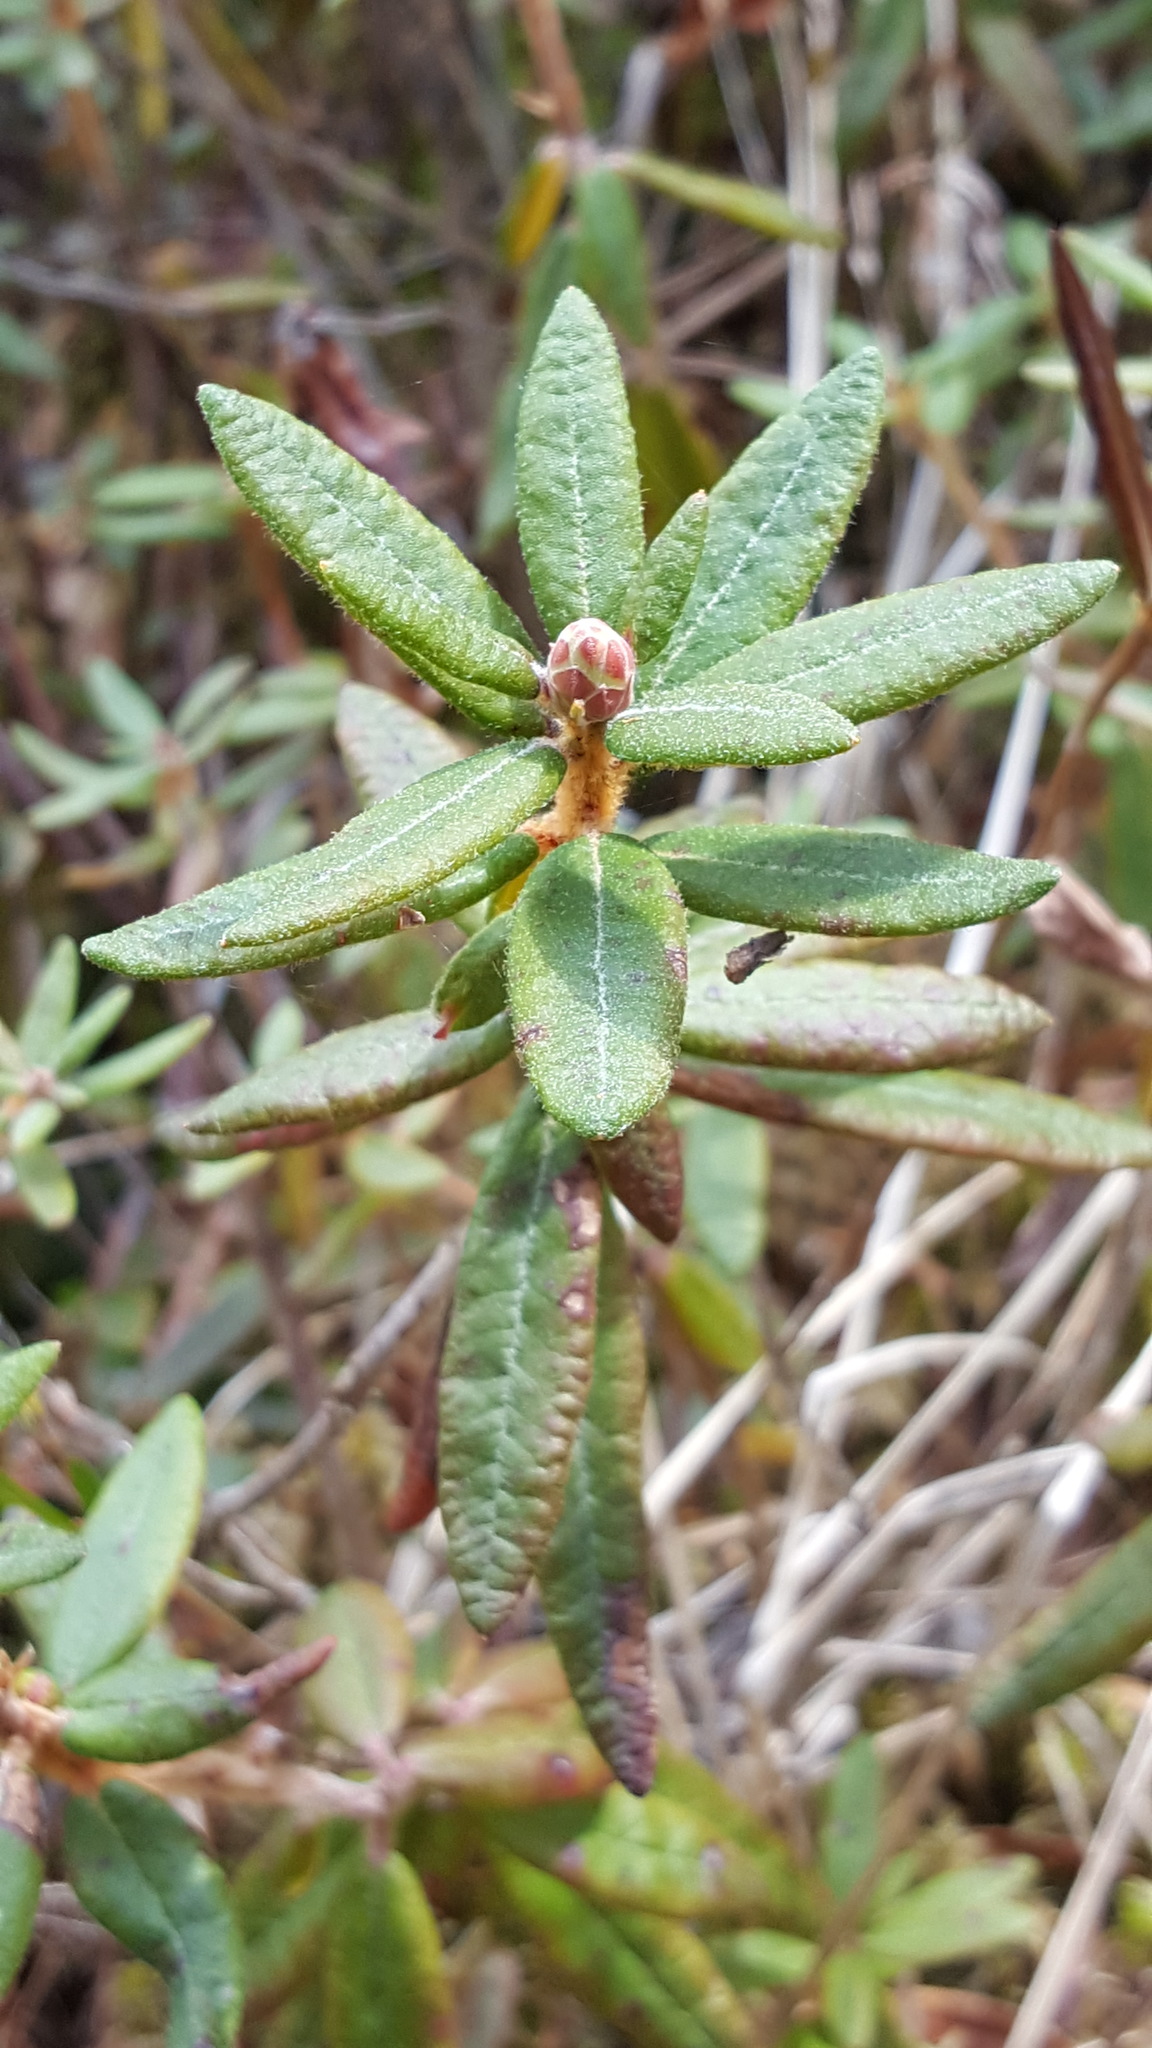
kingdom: Plantae
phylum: Tracheophyta
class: Magnoliopsida
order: Ericales
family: Ericaceae
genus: Rhododendron
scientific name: Rhododendron groenlandicum
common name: Bog labrador tea
